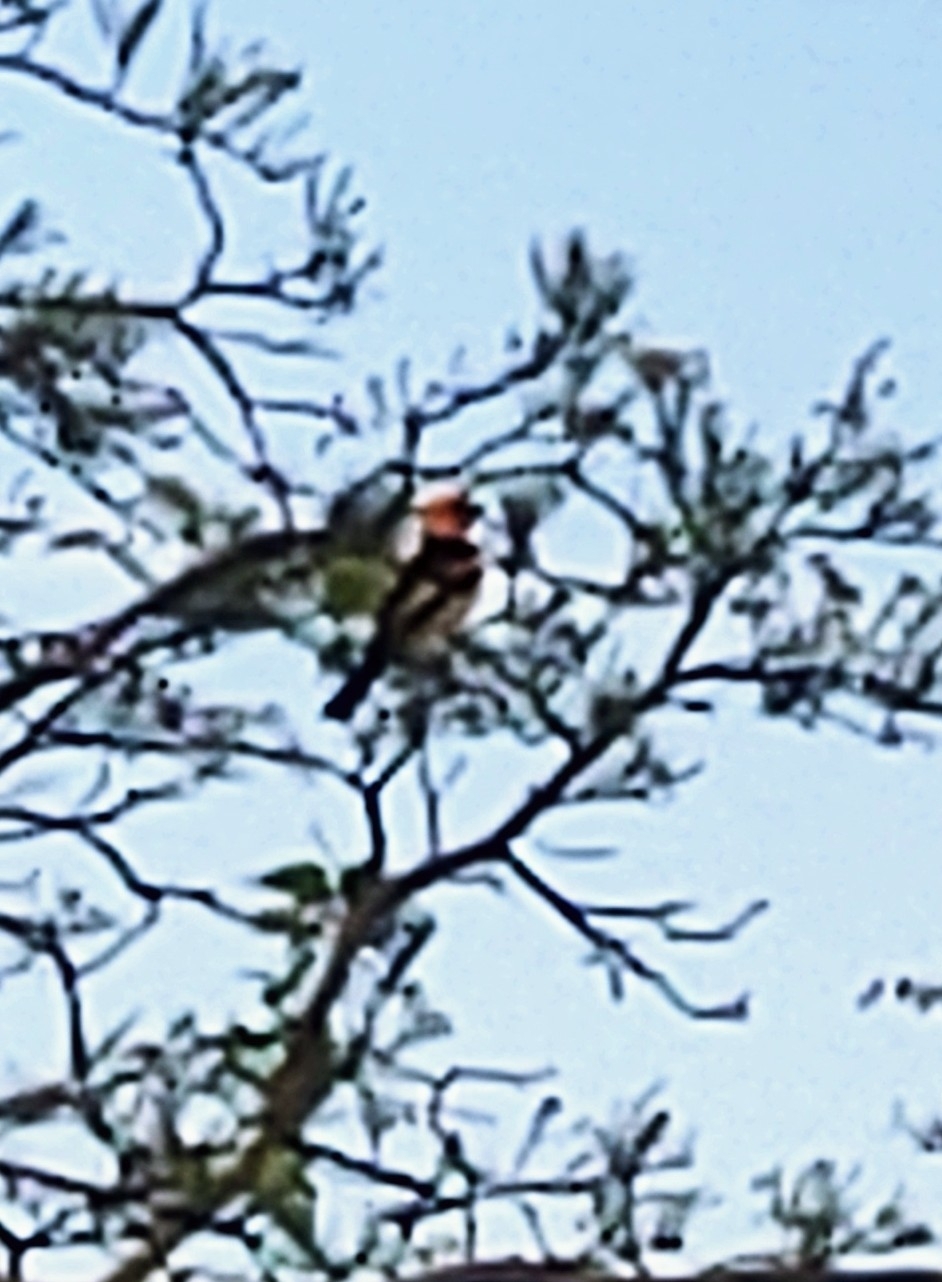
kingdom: Animalia
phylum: Chordata
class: Aves
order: Passeriformes
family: Icteridae
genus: Icterus
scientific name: Icterus pectoralis
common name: Spot-breasted oriole
